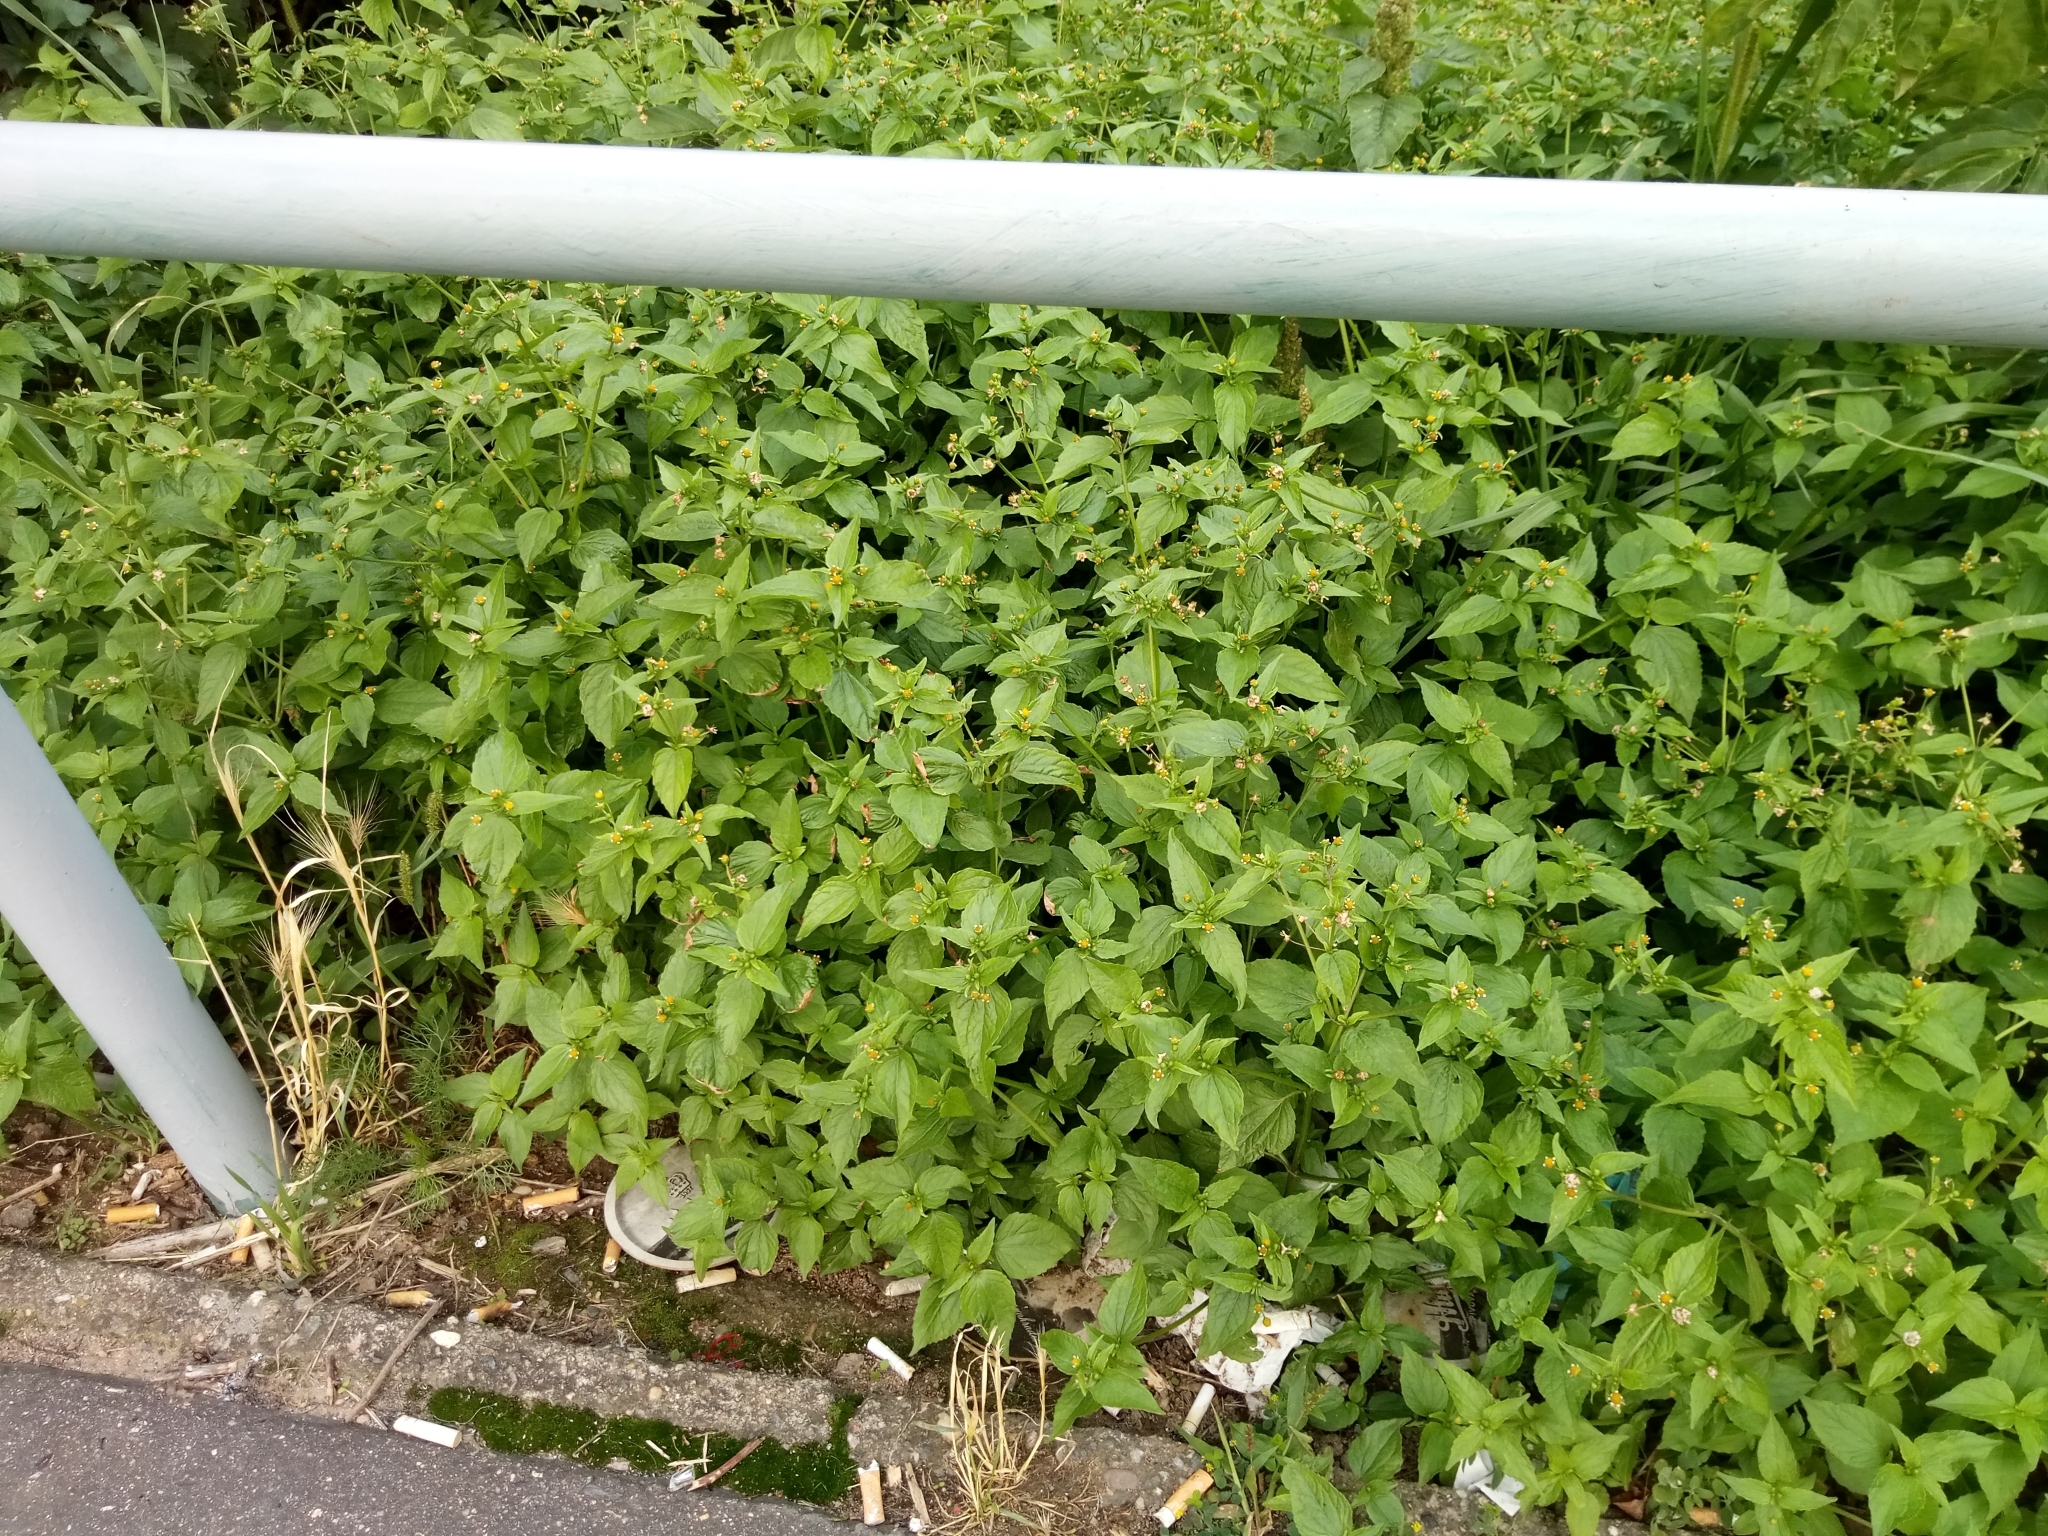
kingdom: Plantae
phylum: Tracheophyta
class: Magnoliopsida
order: Asterales
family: Asteraceae
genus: Galinsoga
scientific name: Galinsoga parviflora
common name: Gallant soldier
